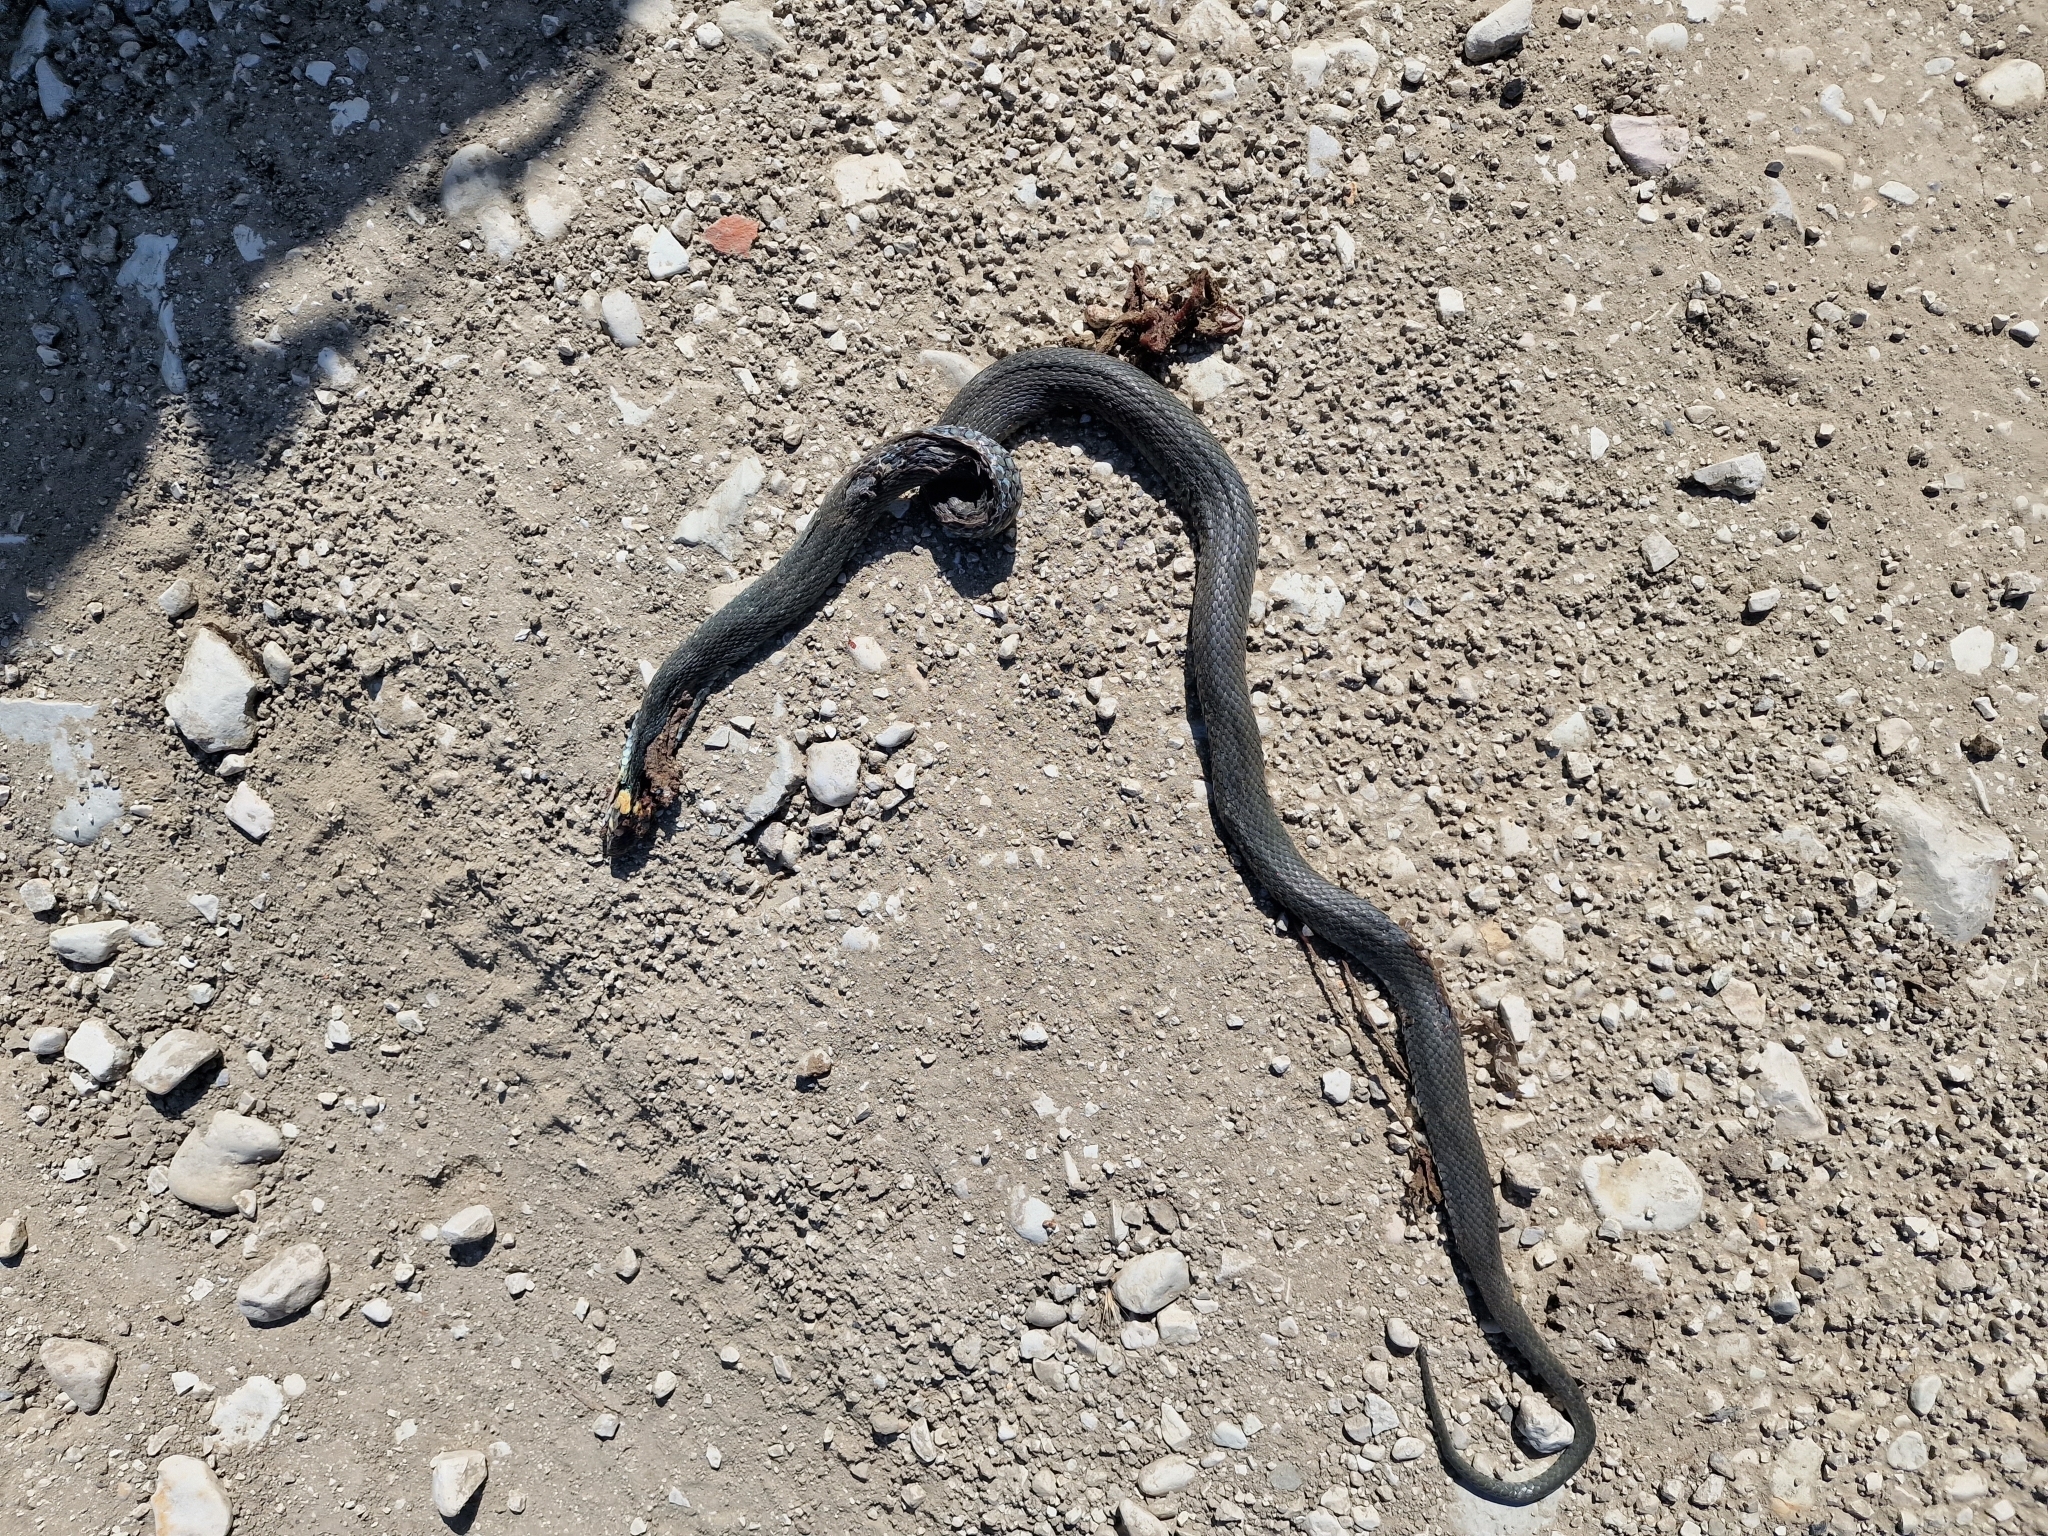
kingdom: Animalia
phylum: Chordata
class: Squamata
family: Colubridae
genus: Natrix
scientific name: Natrix natrix
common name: Grass snake
